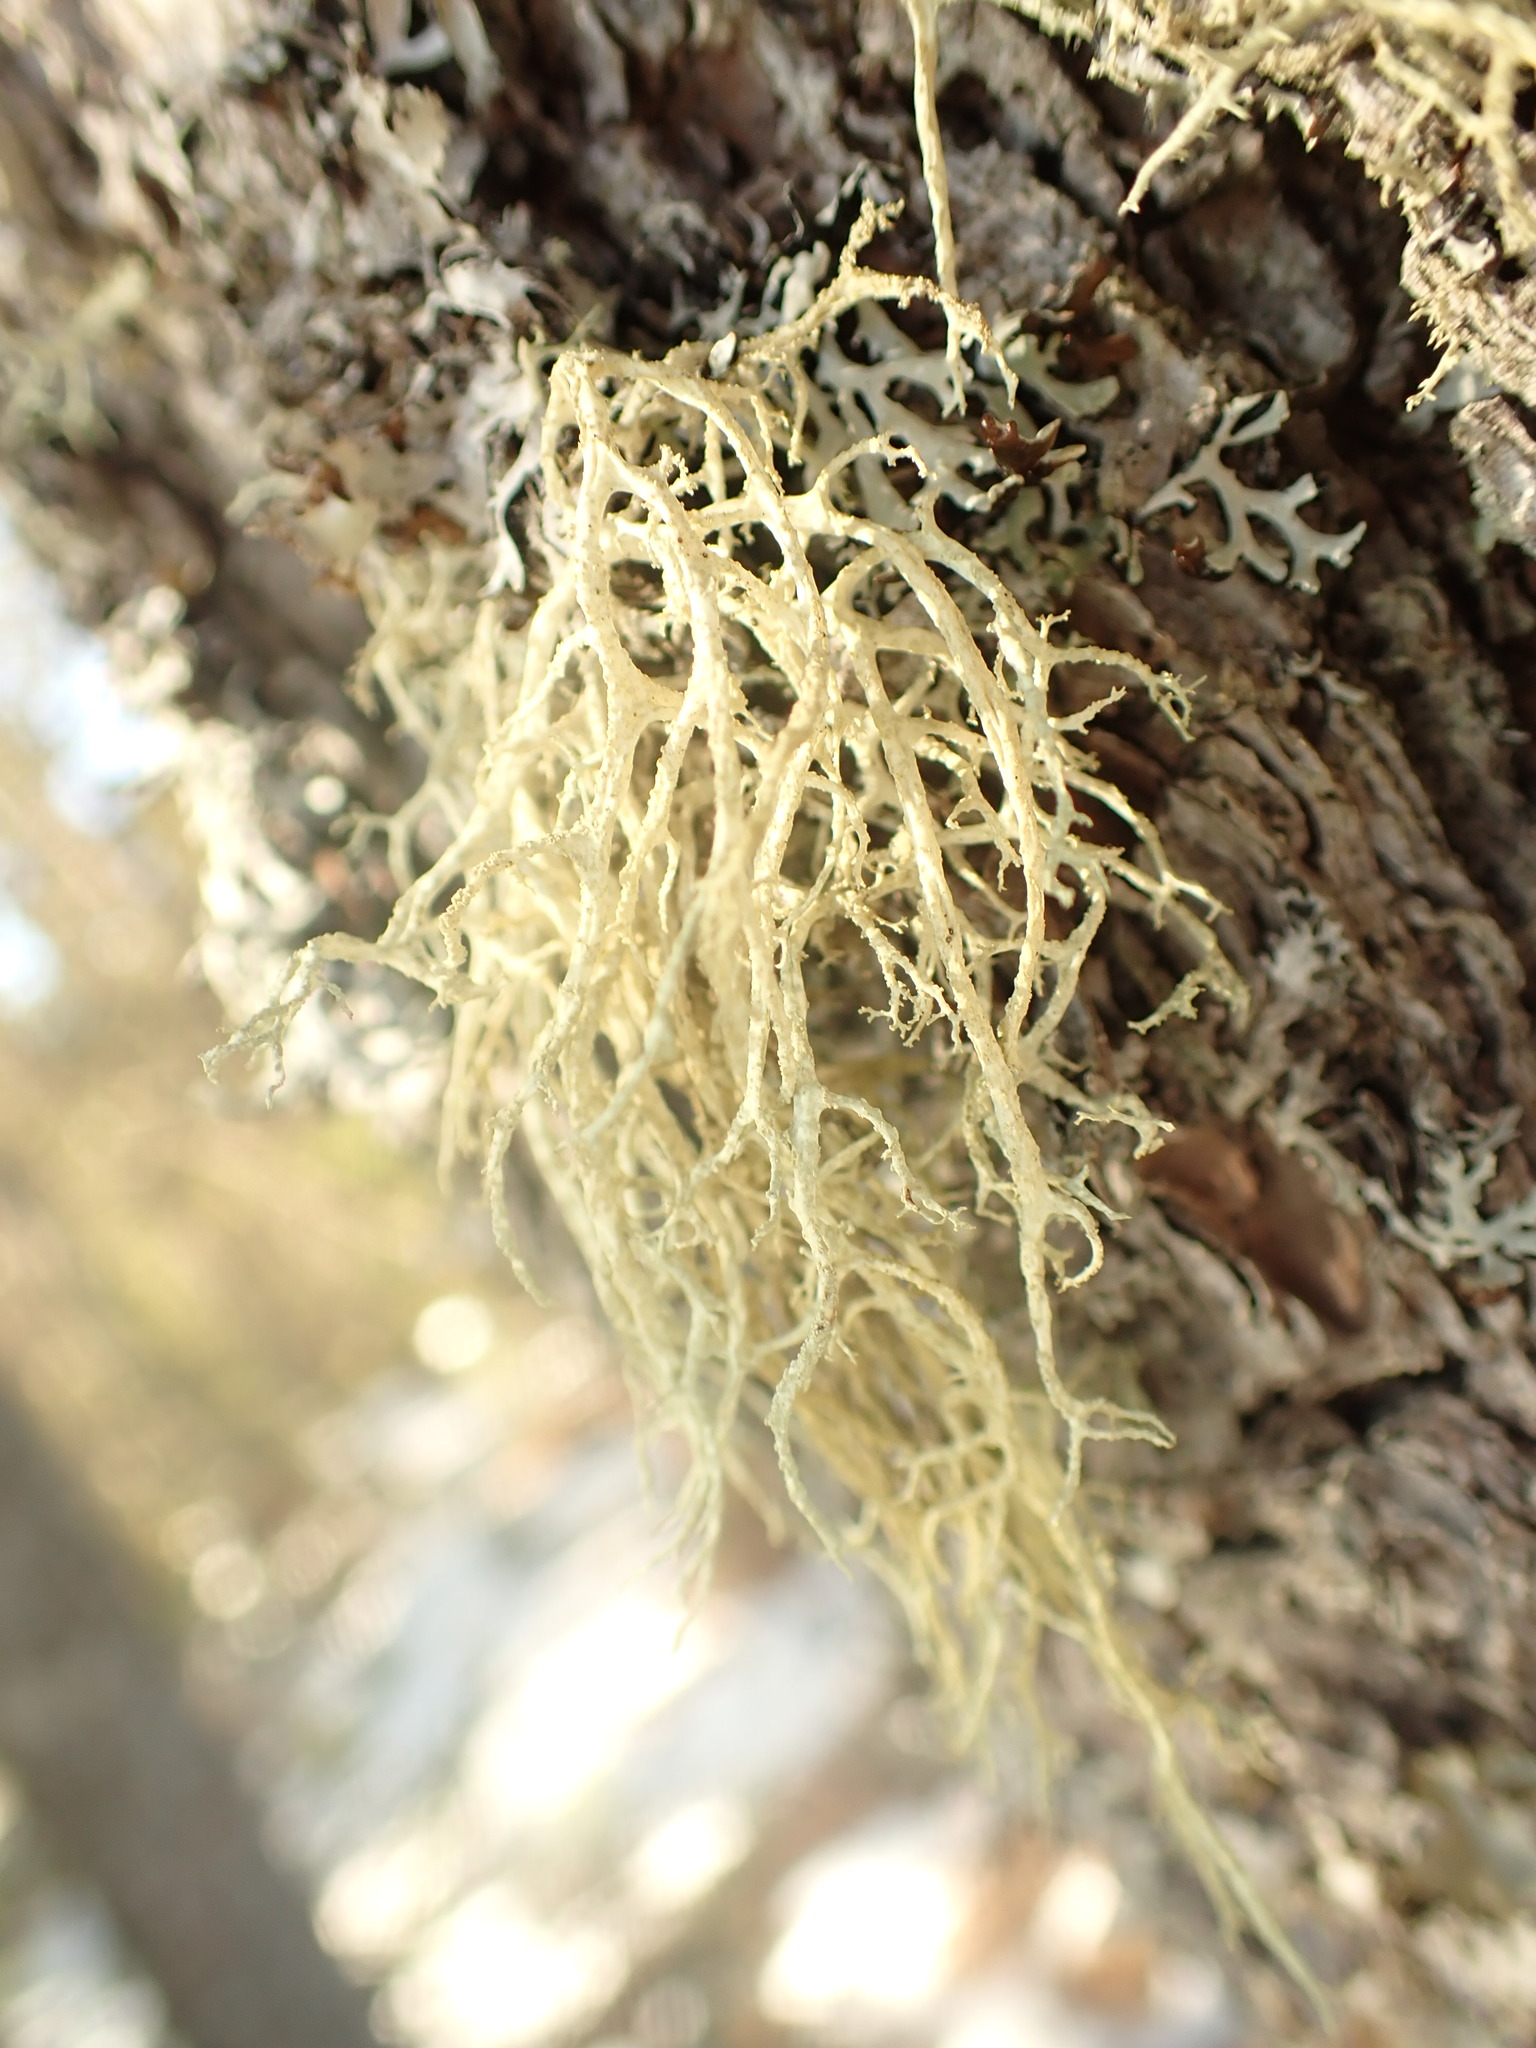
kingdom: Fungi
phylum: Ascomycota
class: Lecanoromycetes
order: Lecanorales
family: Parmeliaceae
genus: Evernia
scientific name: Evernia mesomorpha
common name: Boreal oak moss lichen
